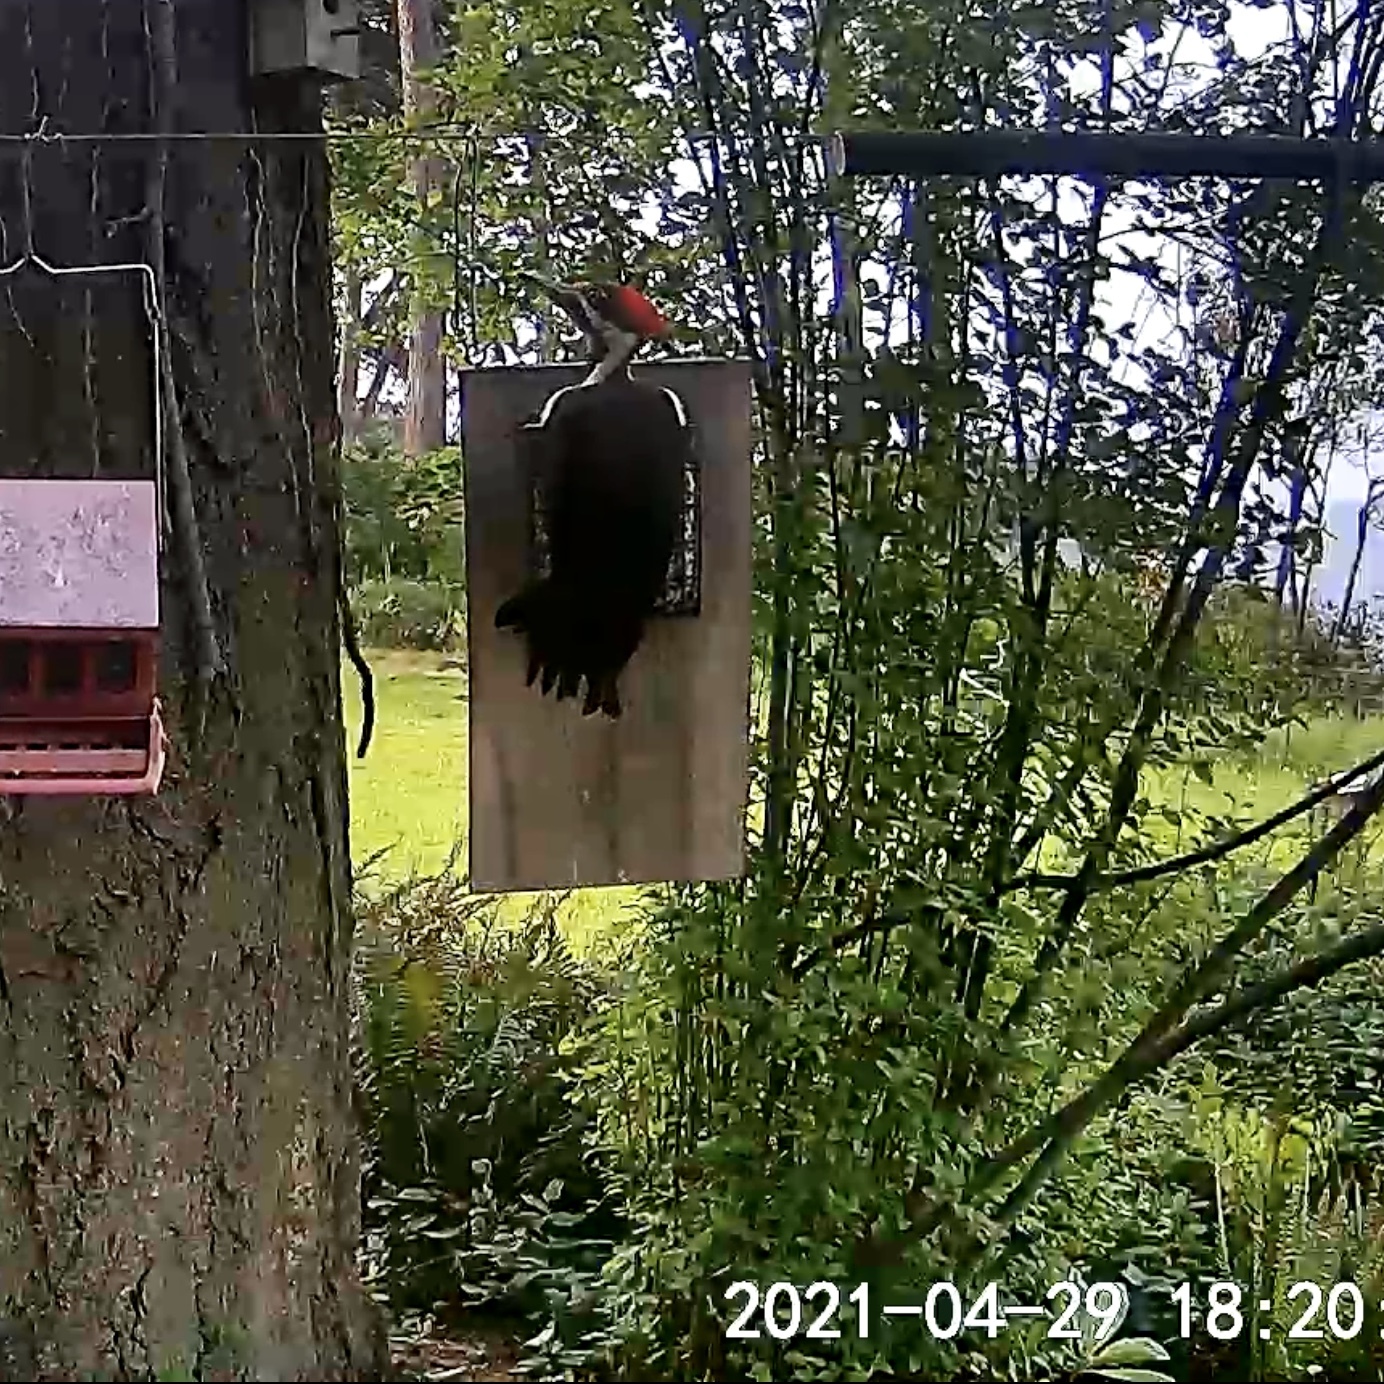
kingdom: Animalia
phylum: Chordata
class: Aves
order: Piciformes
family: Picidae
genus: Dryocopus
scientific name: Dryocopus pileatus
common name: Pileated woodpecker
